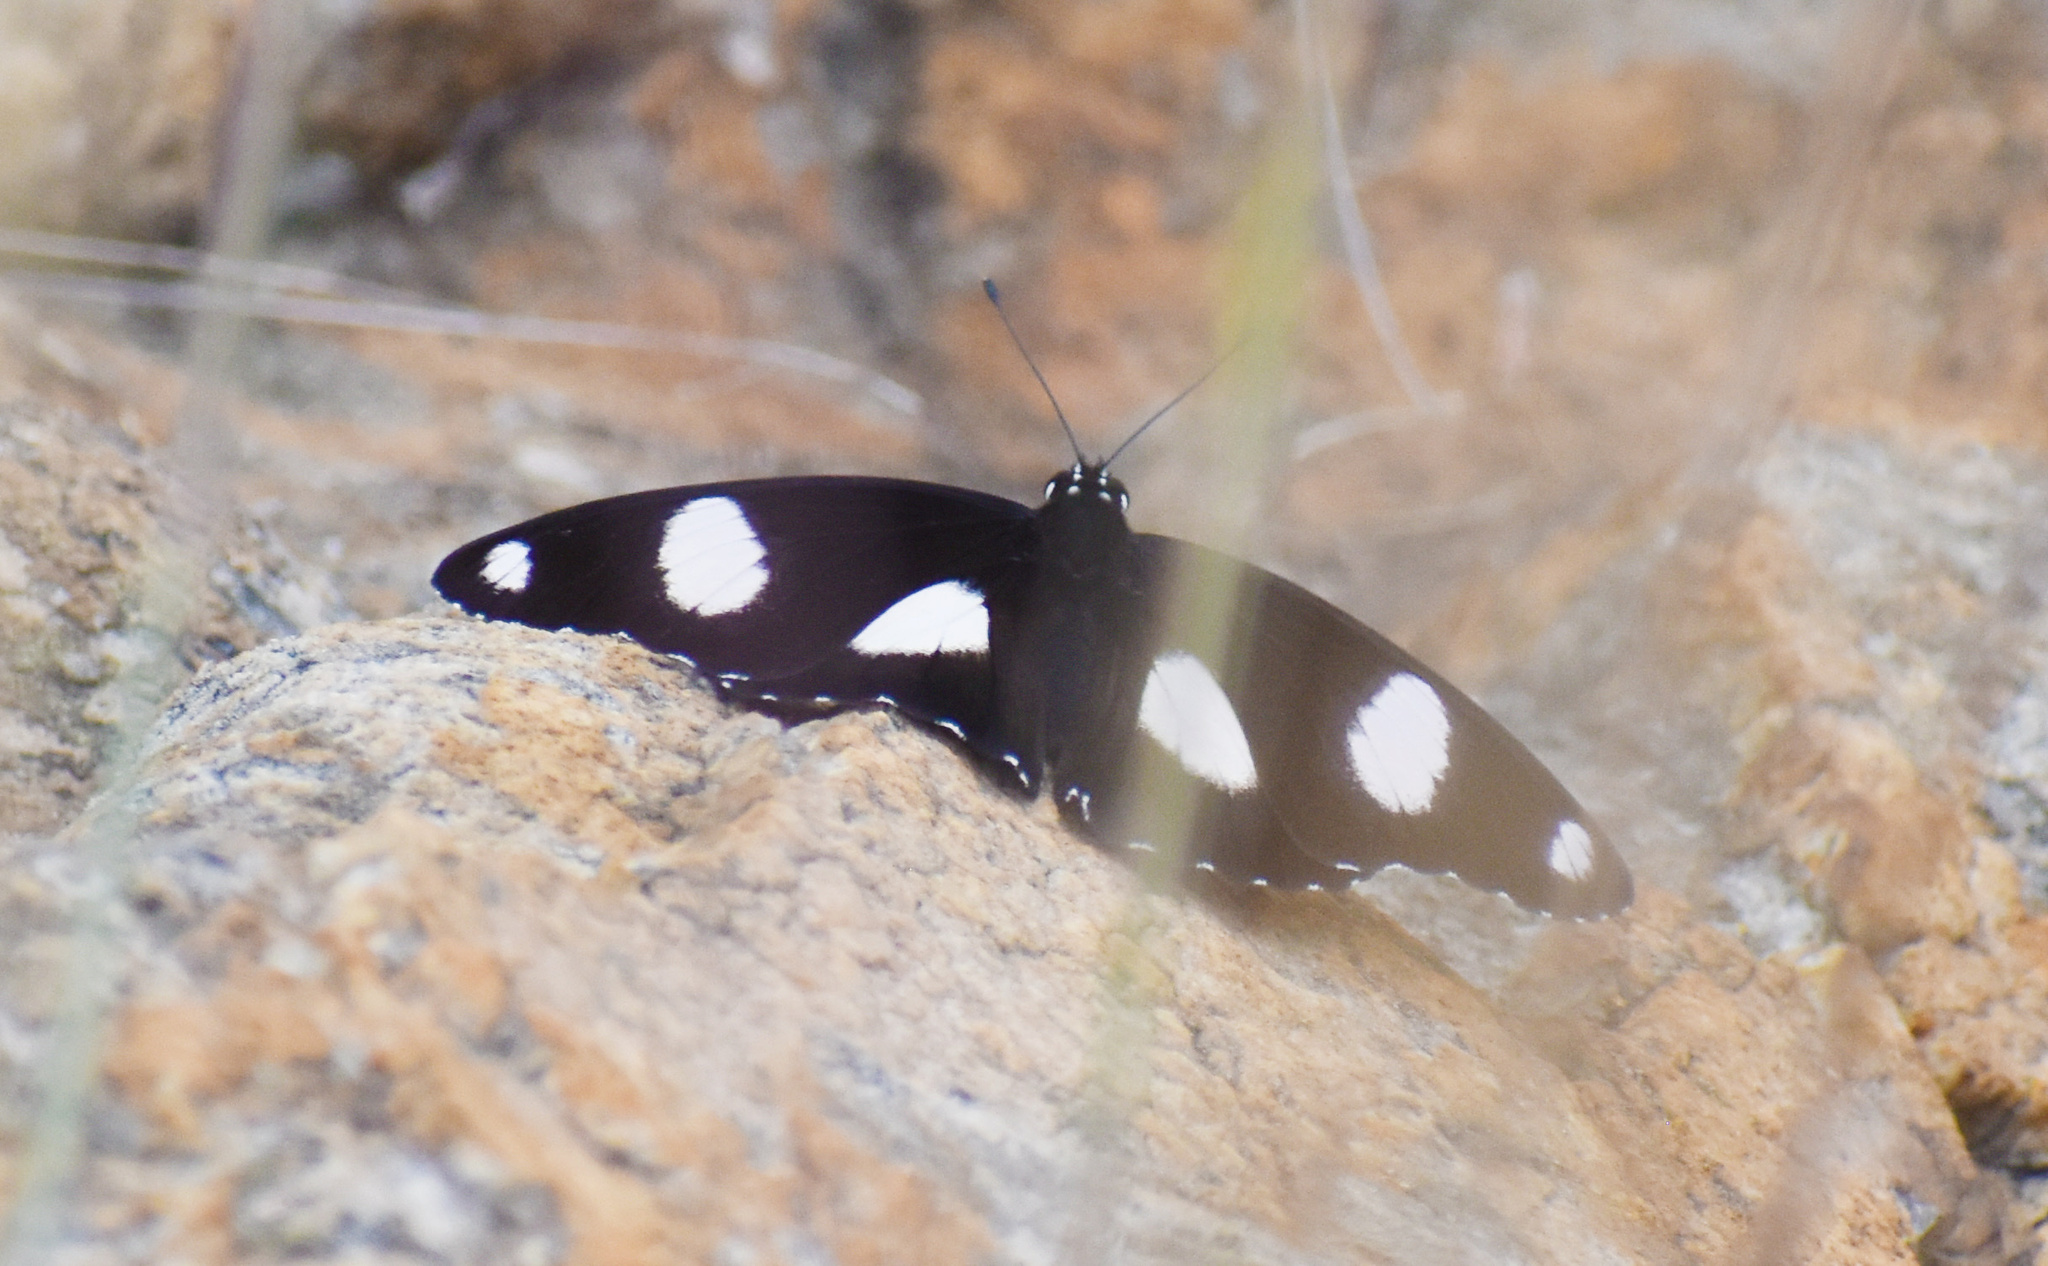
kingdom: Animalia
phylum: Arthropoda
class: Insecta
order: Lepidoptera
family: Nymphalidae
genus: Hypolimnas
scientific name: Hypolimnas misippus
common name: False plain tiger
